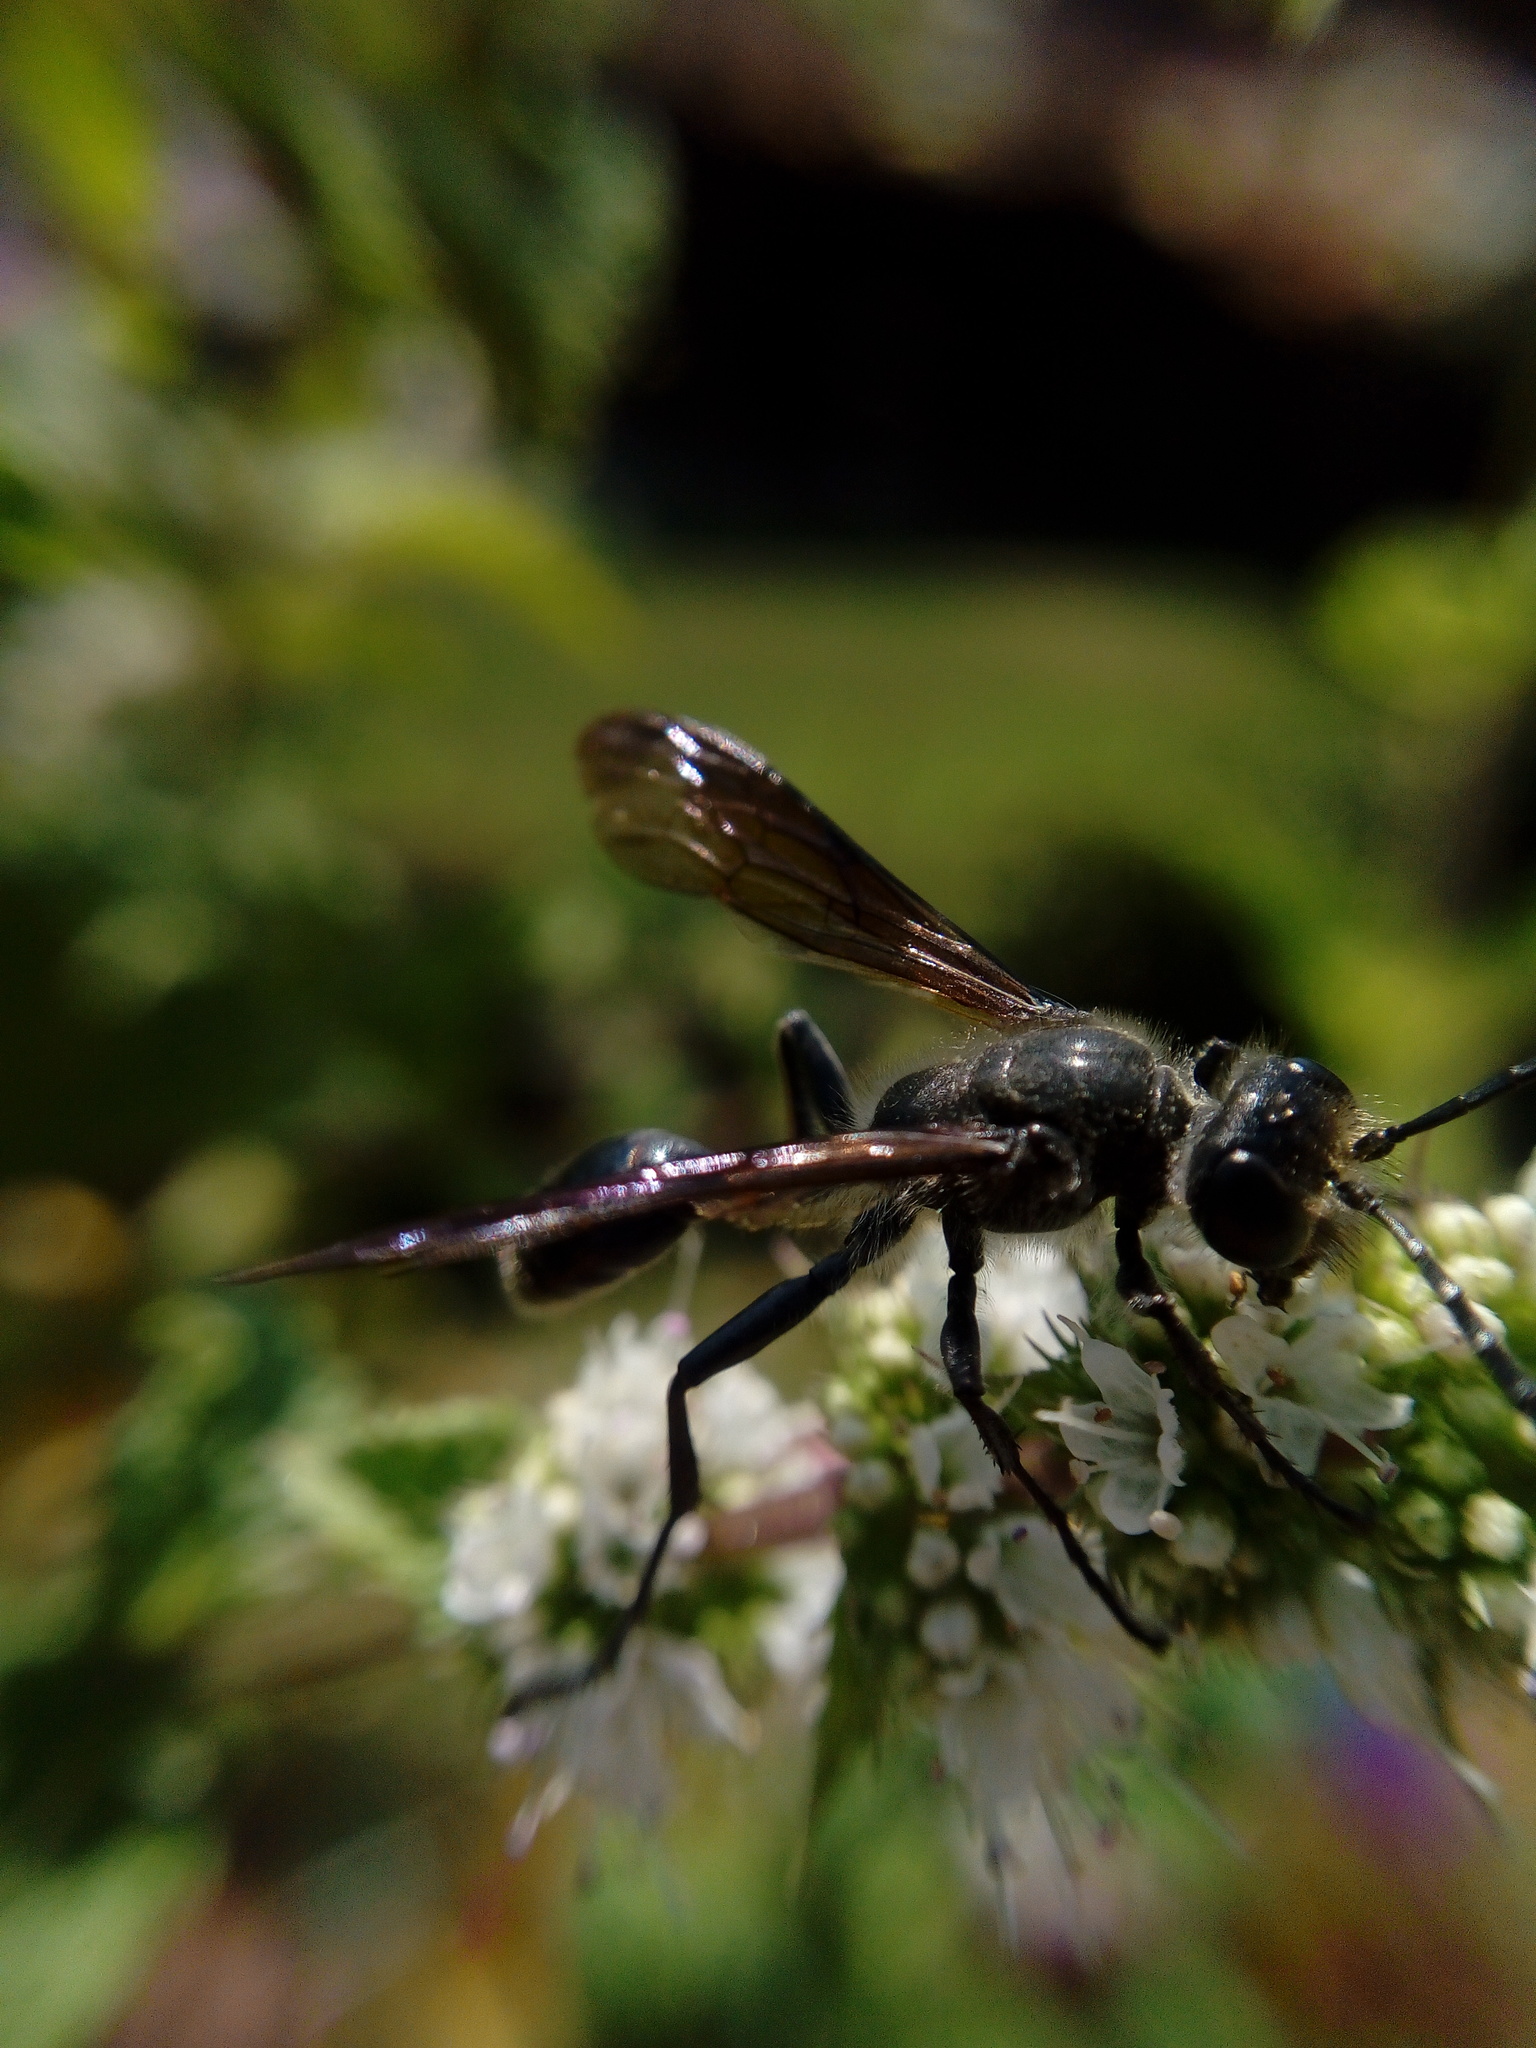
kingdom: Animalia
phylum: Arthropoda
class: Insecta
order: Hymenoptera
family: Sphecidae
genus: Isodontia
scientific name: Isodontia mexicana
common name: Mud dauber
